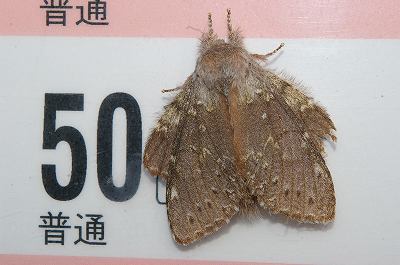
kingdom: Animalia
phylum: Arthropoda
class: Insecta
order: Lepidoptera
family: Notodontidae
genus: Stauropus
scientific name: Stauropus fagi
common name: Lobster moth
